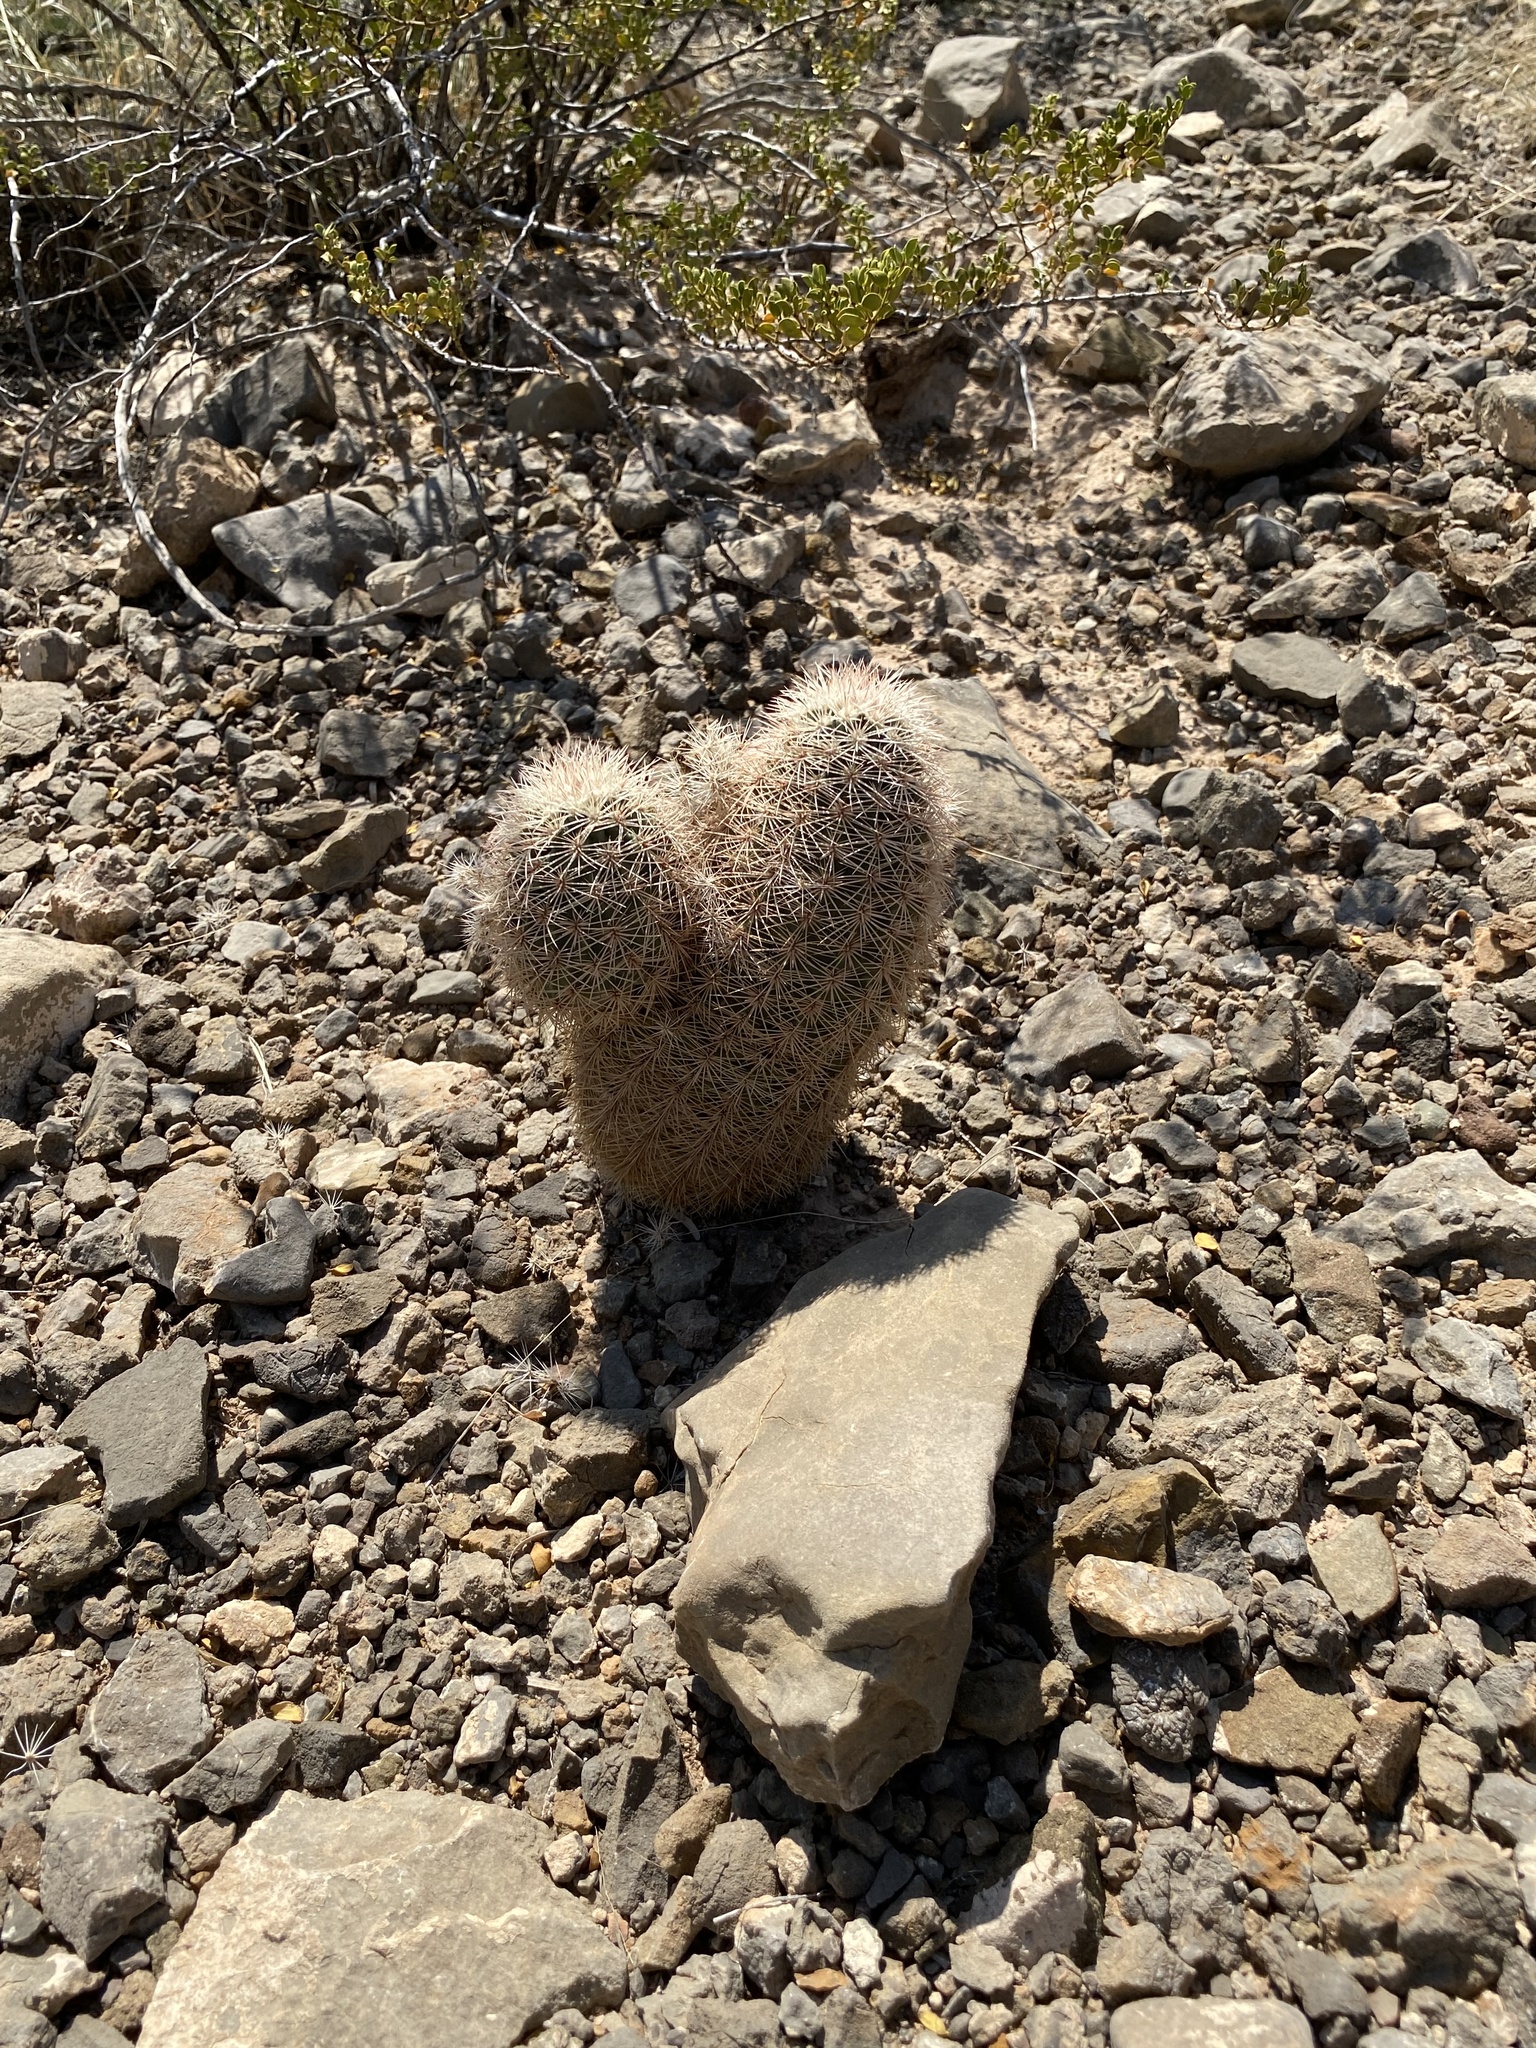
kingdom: Plantae
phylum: Tracheophyta
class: Magnoliopsida
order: Caryophyllales
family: Cactaceae
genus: Echinocereus
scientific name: Echinocereus dasyacanthus
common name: Spiny hedgehog cactus
